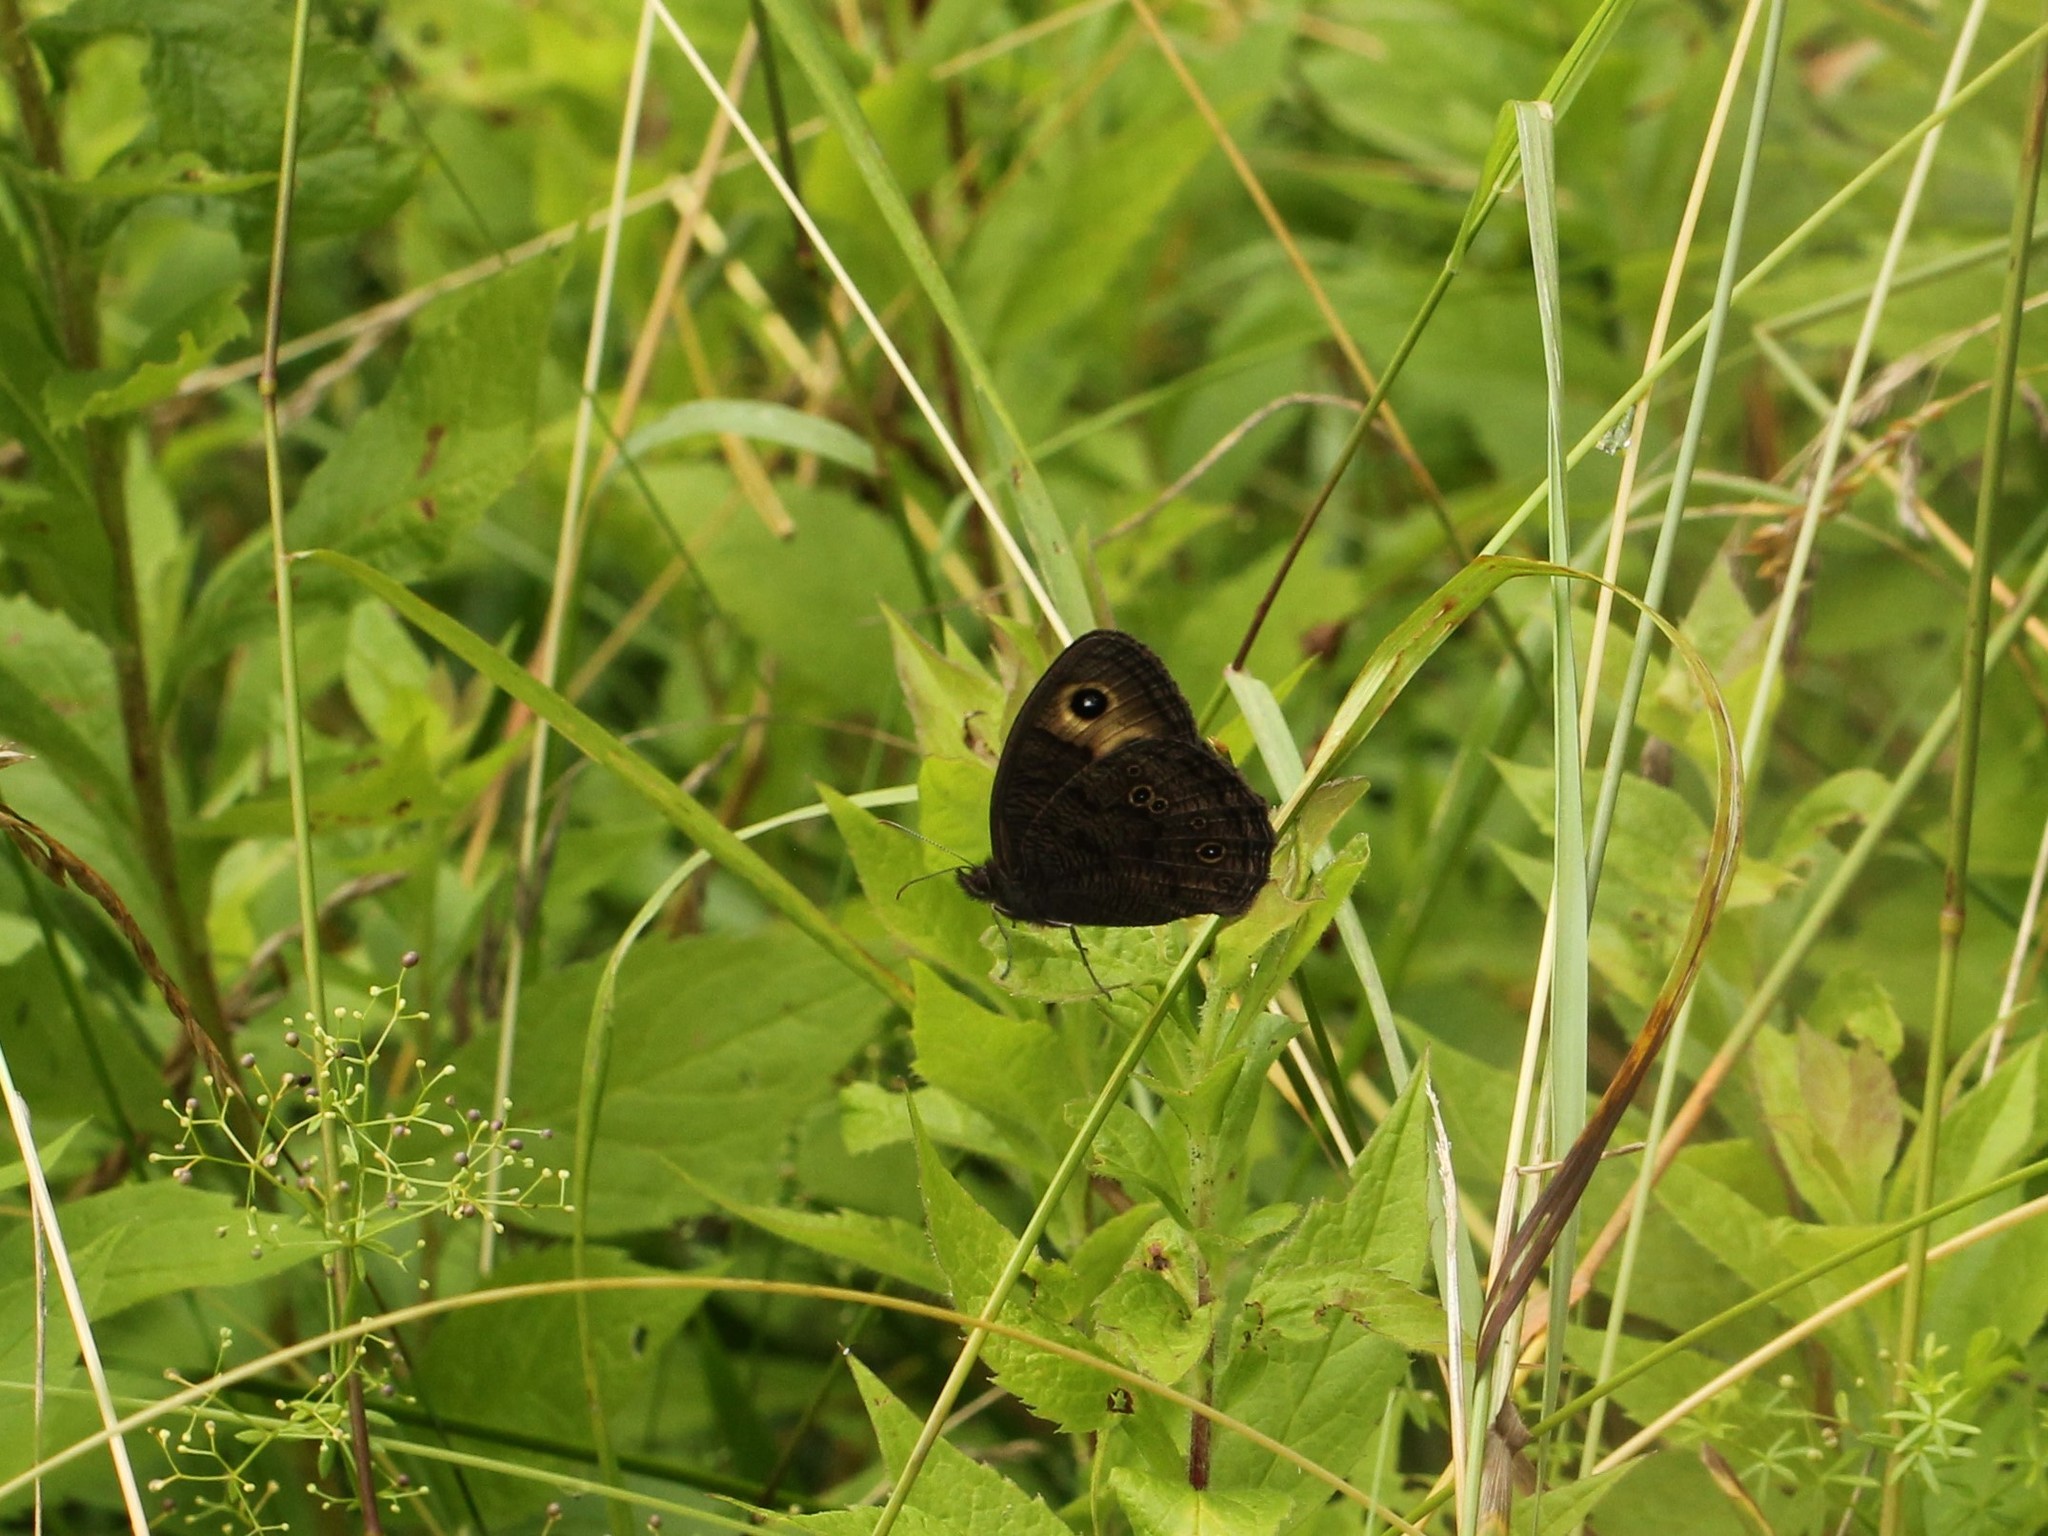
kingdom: Animalia
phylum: Arthropoda
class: Insecta
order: Lepidoptera
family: Nymphalidae
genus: Cercyonis
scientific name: Cercyonis pegala
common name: Common wood-nymph
